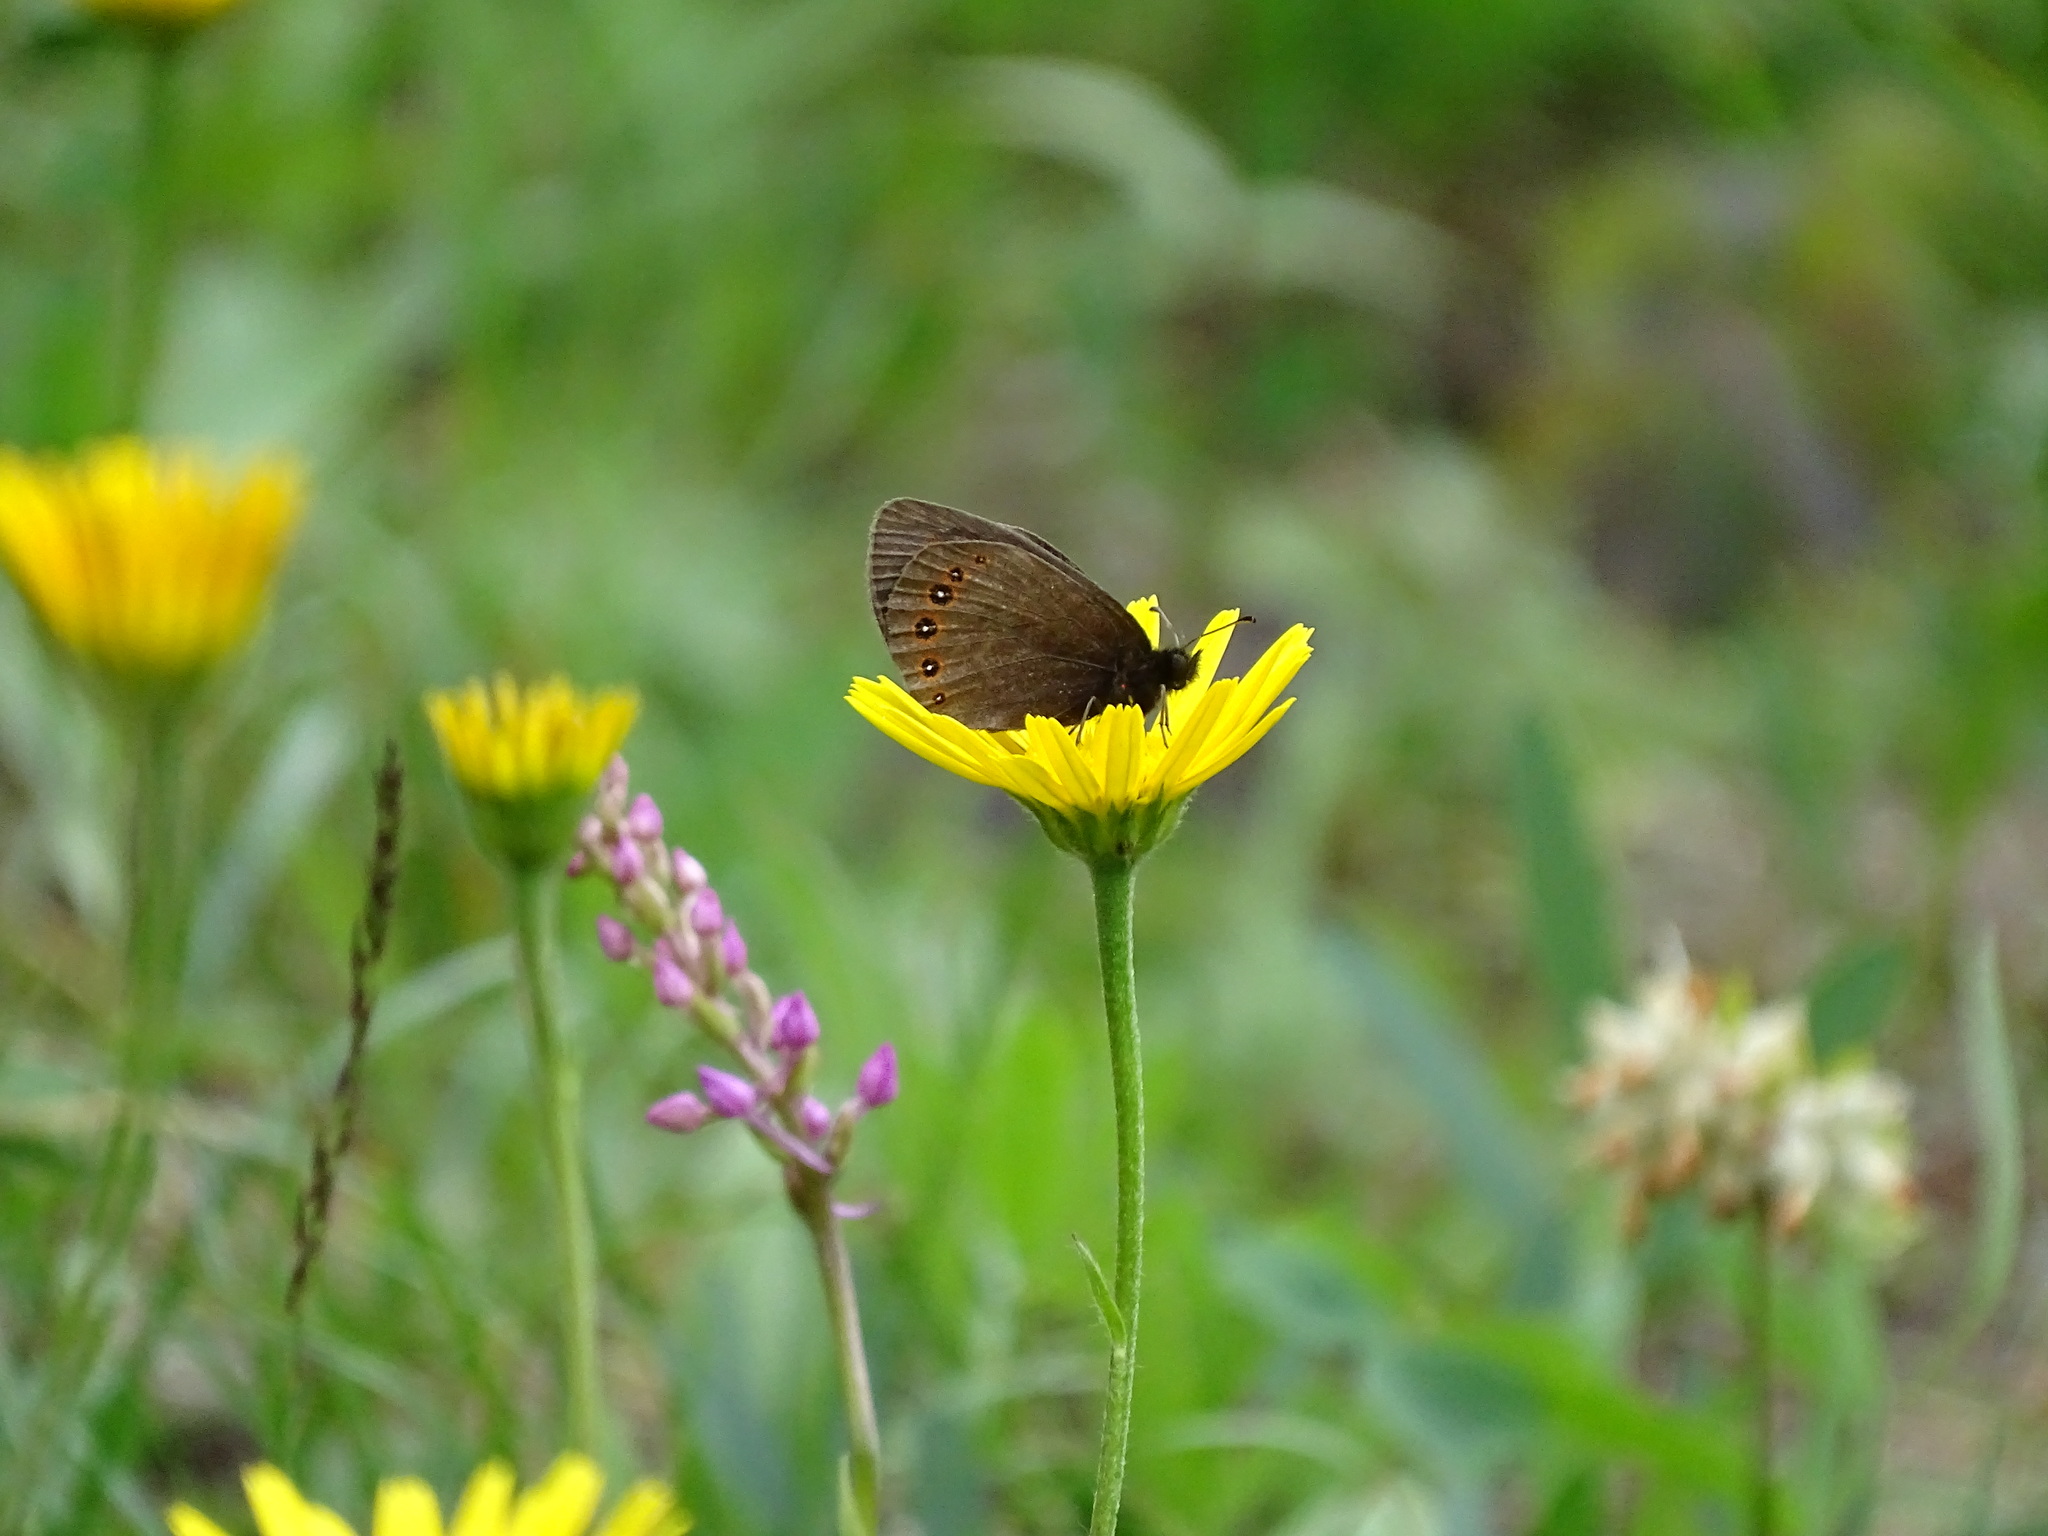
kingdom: Animalia
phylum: Arthropoda
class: Insecta
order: Lepidoptera
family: Nymphalidae
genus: Erebia
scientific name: Erebia oeme
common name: Bright-eyed ringlet
